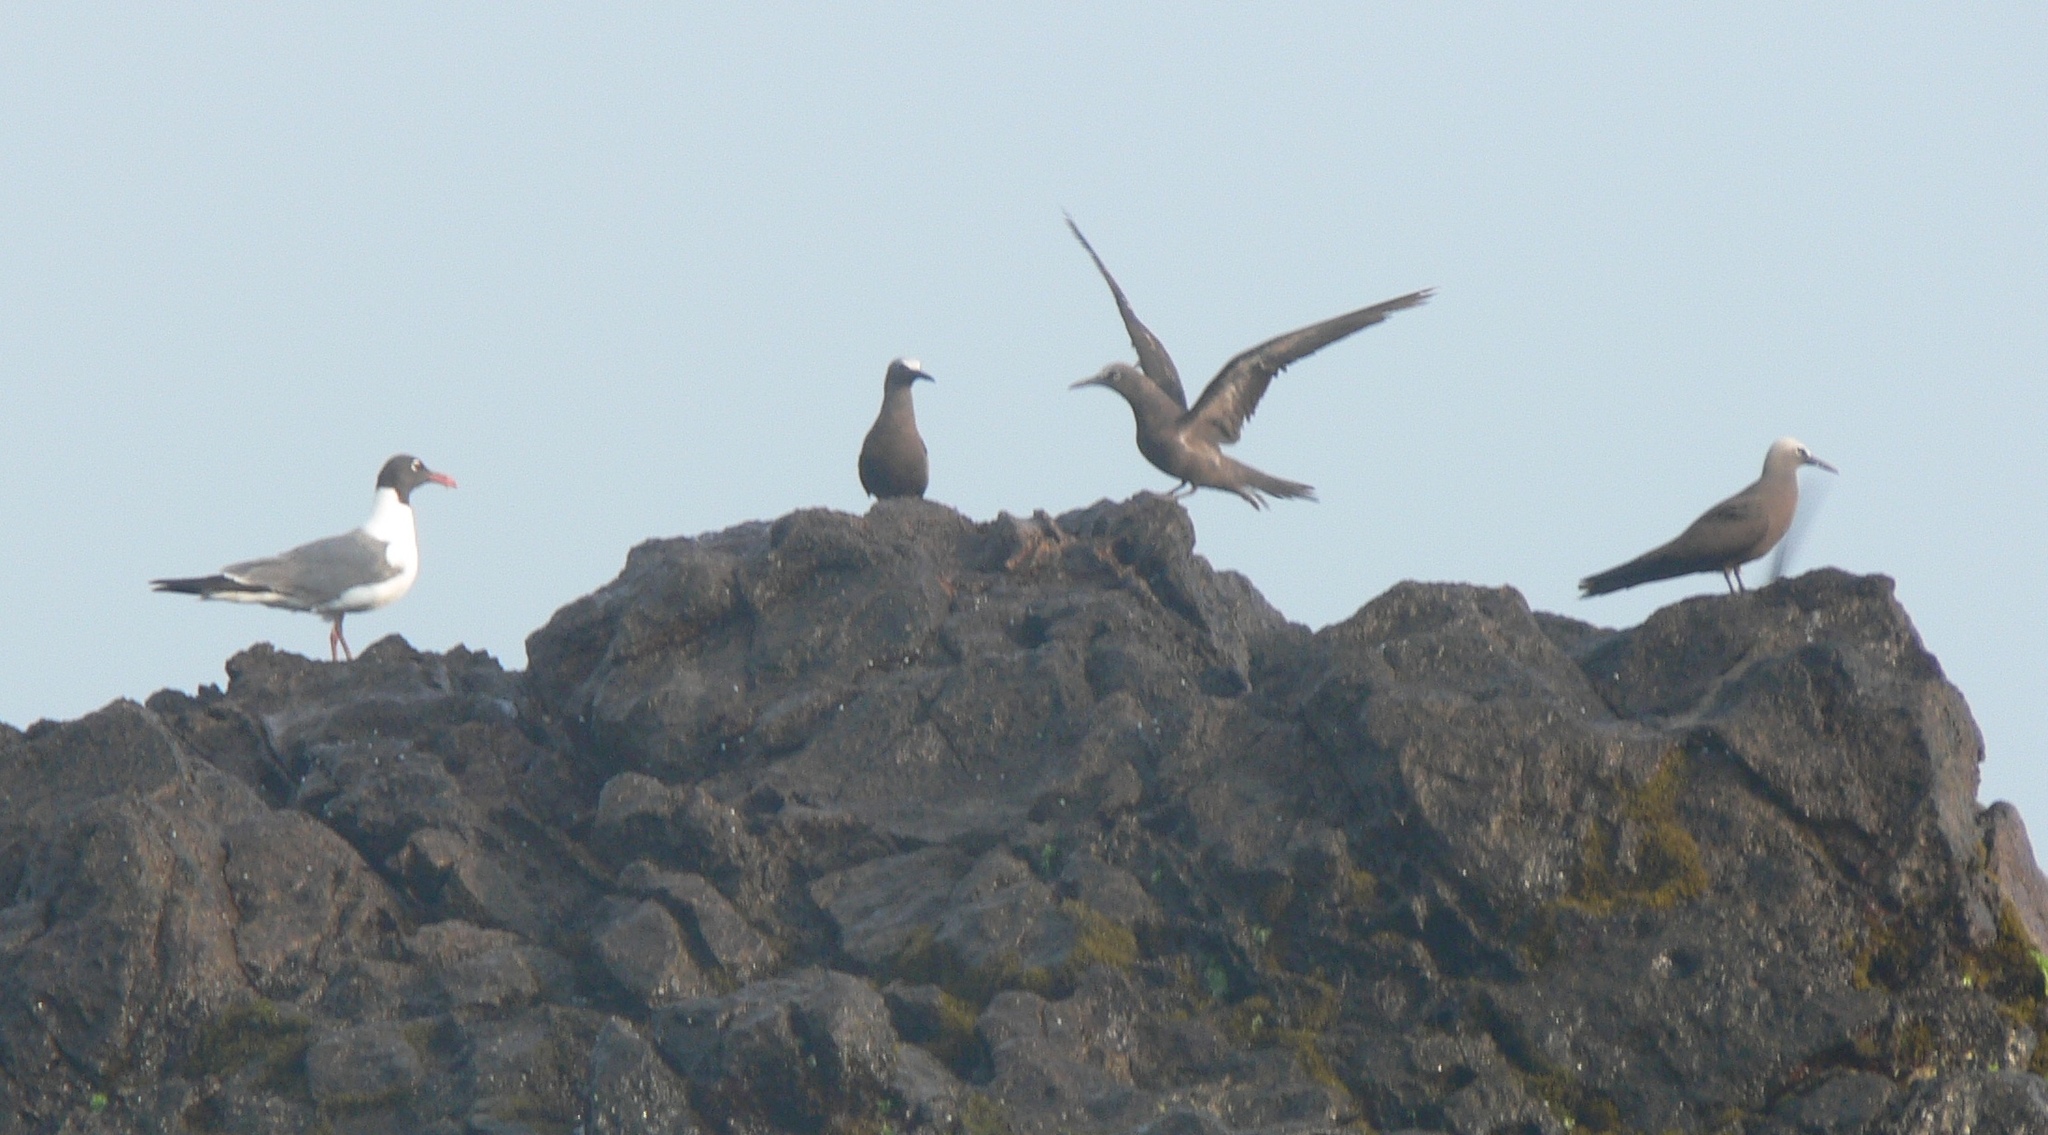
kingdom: Animalia
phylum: Chordata
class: Aves
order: Charadriiformes
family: Laridae
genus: Anous
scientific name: Anous stolidus
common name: Brown noddy
